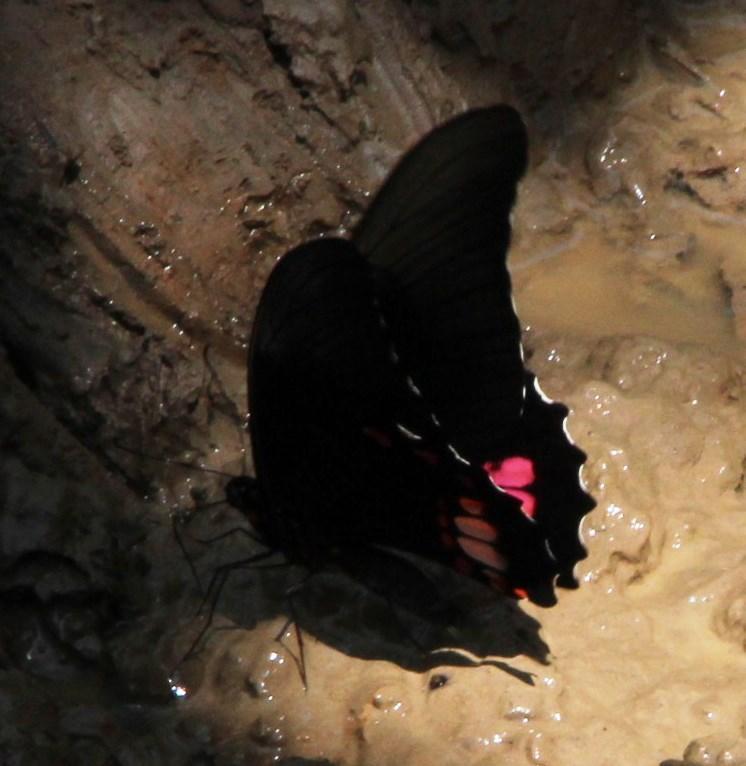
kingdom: Animalia
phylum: Arthropoda
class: Insecta
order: Lepidoptera
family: Papilionidae
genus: Papilio
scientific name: Papilio anchisiades
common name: Idaes swallowtail
